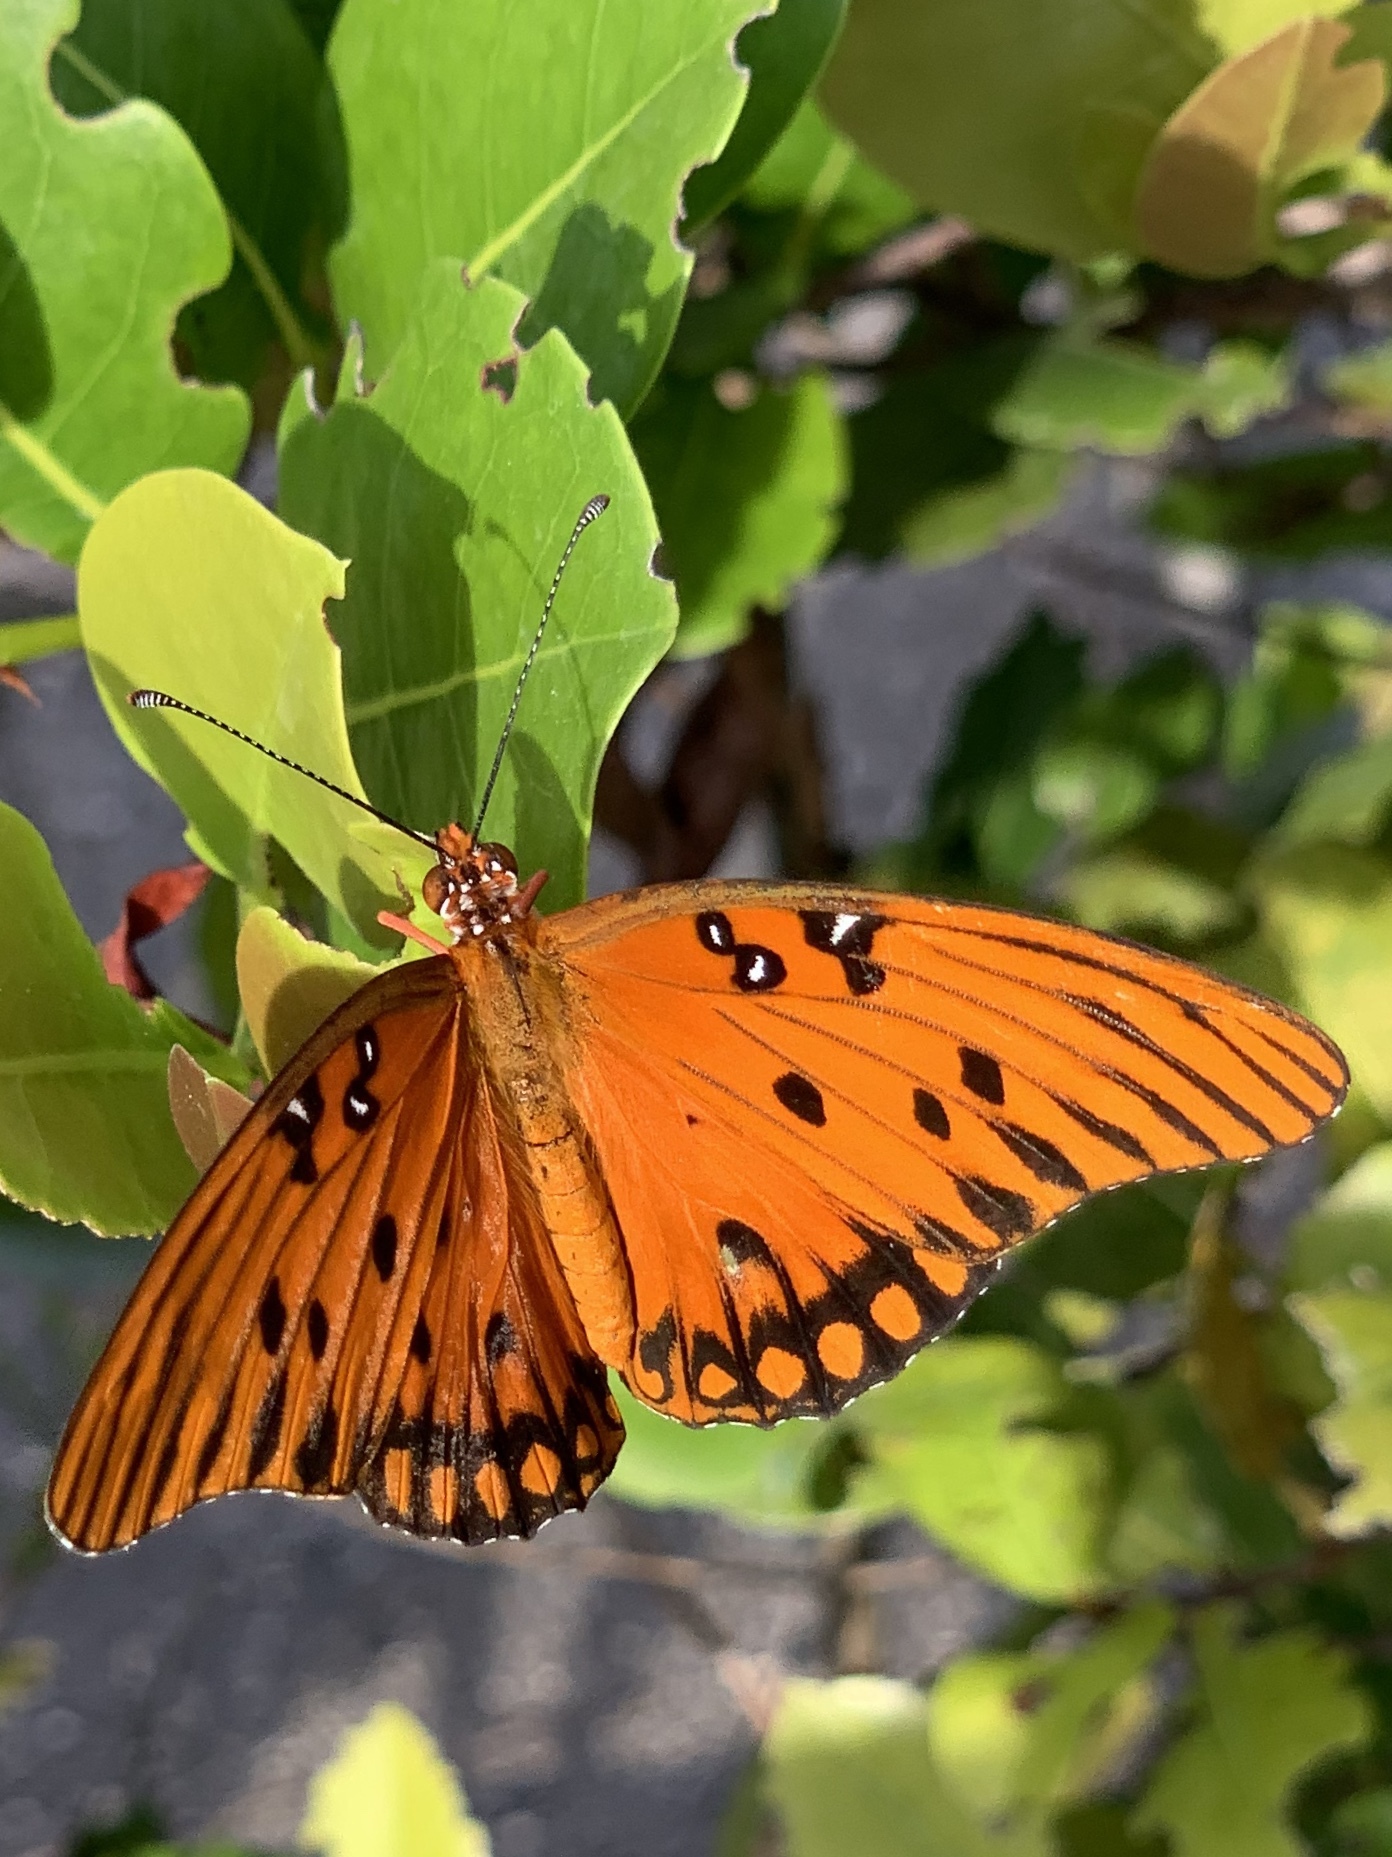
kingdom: Animalia
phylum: Arthropoda
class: Insecta
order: Lepidoptera
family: Nymphalidae
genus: Dione
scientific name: Dione vanillae
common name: Gulf fritillary
